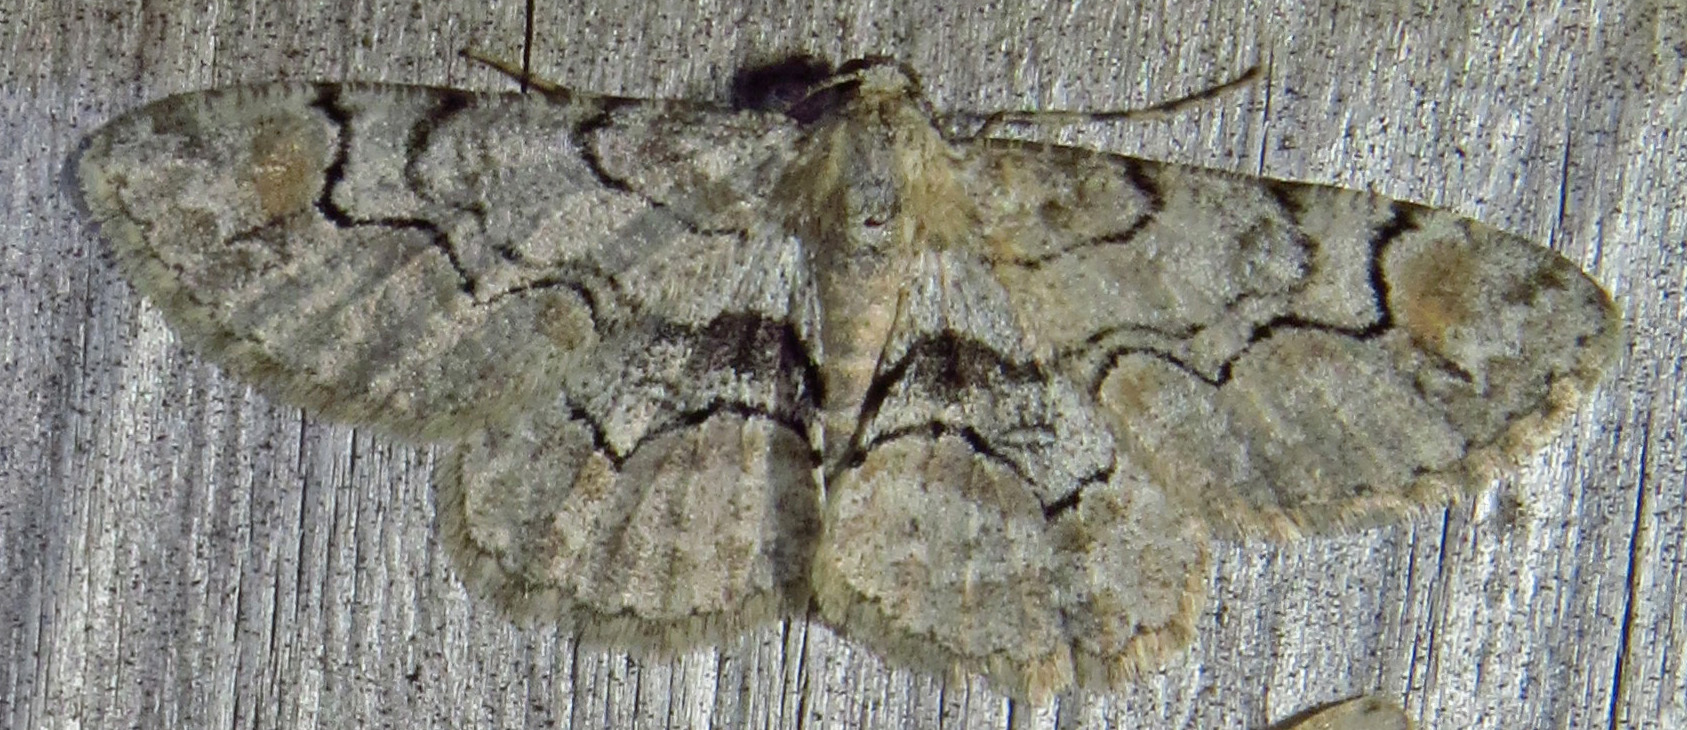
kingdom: Animalia
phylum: Arthropoda
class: Insecta
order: Lepidoptera
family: Geometridae
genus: Iridopsis
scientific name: Iridopsis larvaria
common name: Bent-line gray
